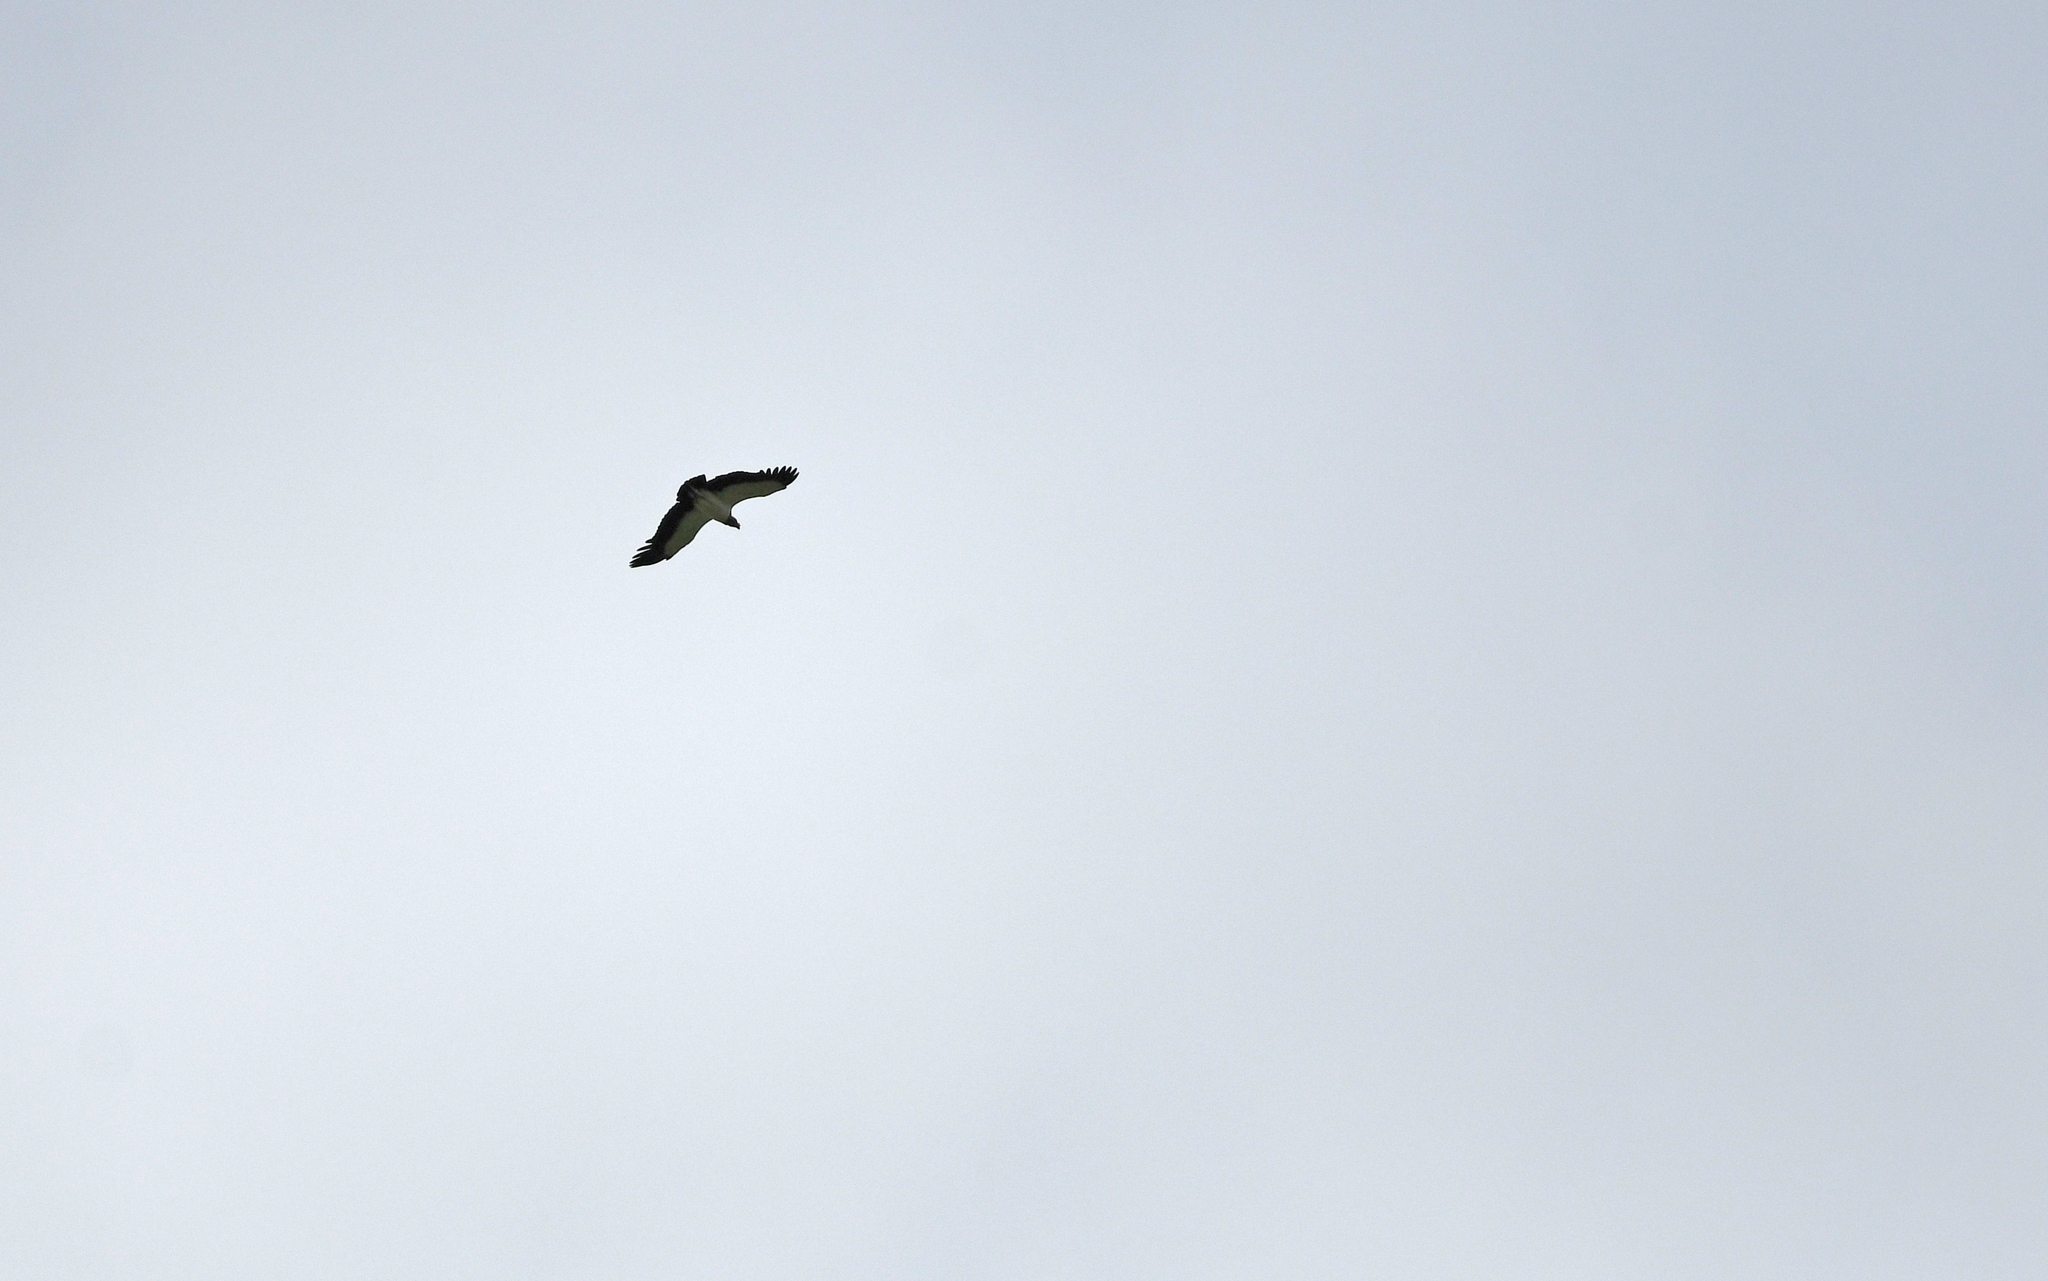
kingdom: Animalia
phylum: Chordata
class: Aves
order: Accipitriformes
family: Cathartidae
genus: Sarcoramphus
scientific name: Sarcoramphus papa
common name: King vulture
